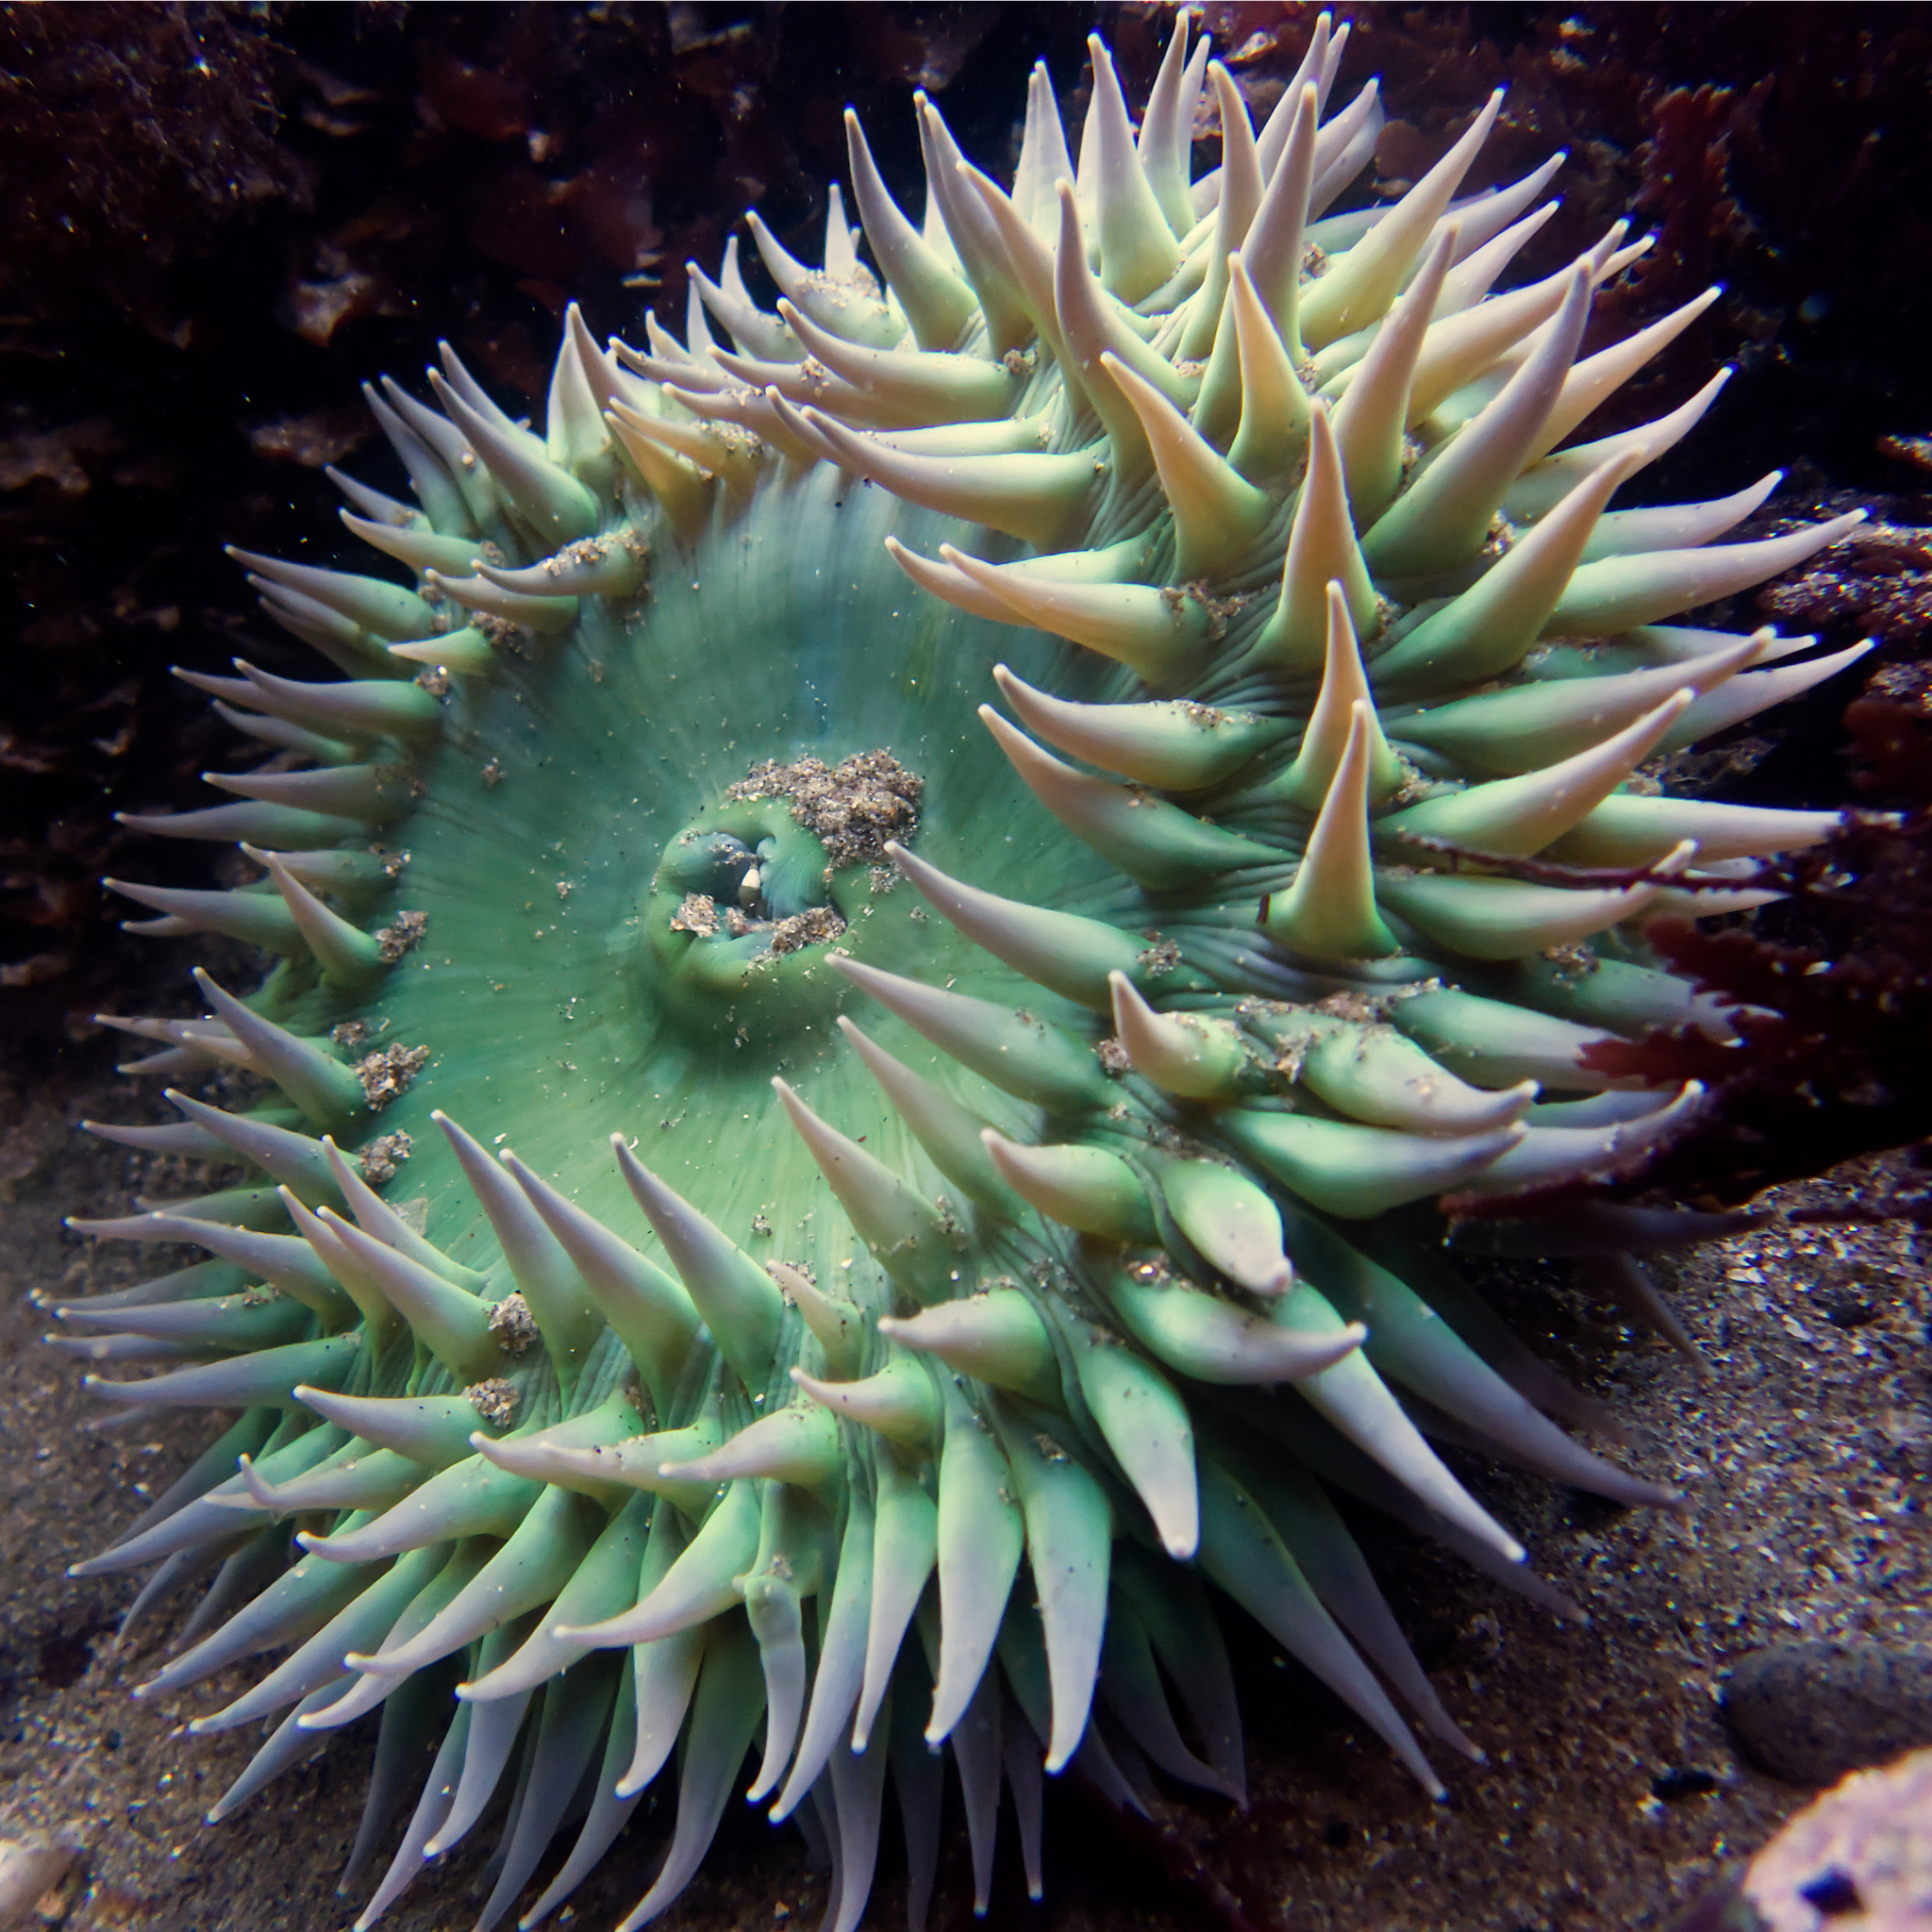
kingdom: Animalia
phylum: Cnidaria
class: Anthozoa
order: Actiniaria
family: Actiniidae
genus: Anthopleura
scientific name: Anthopleura xanthogrammica
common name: Giant green anemone
